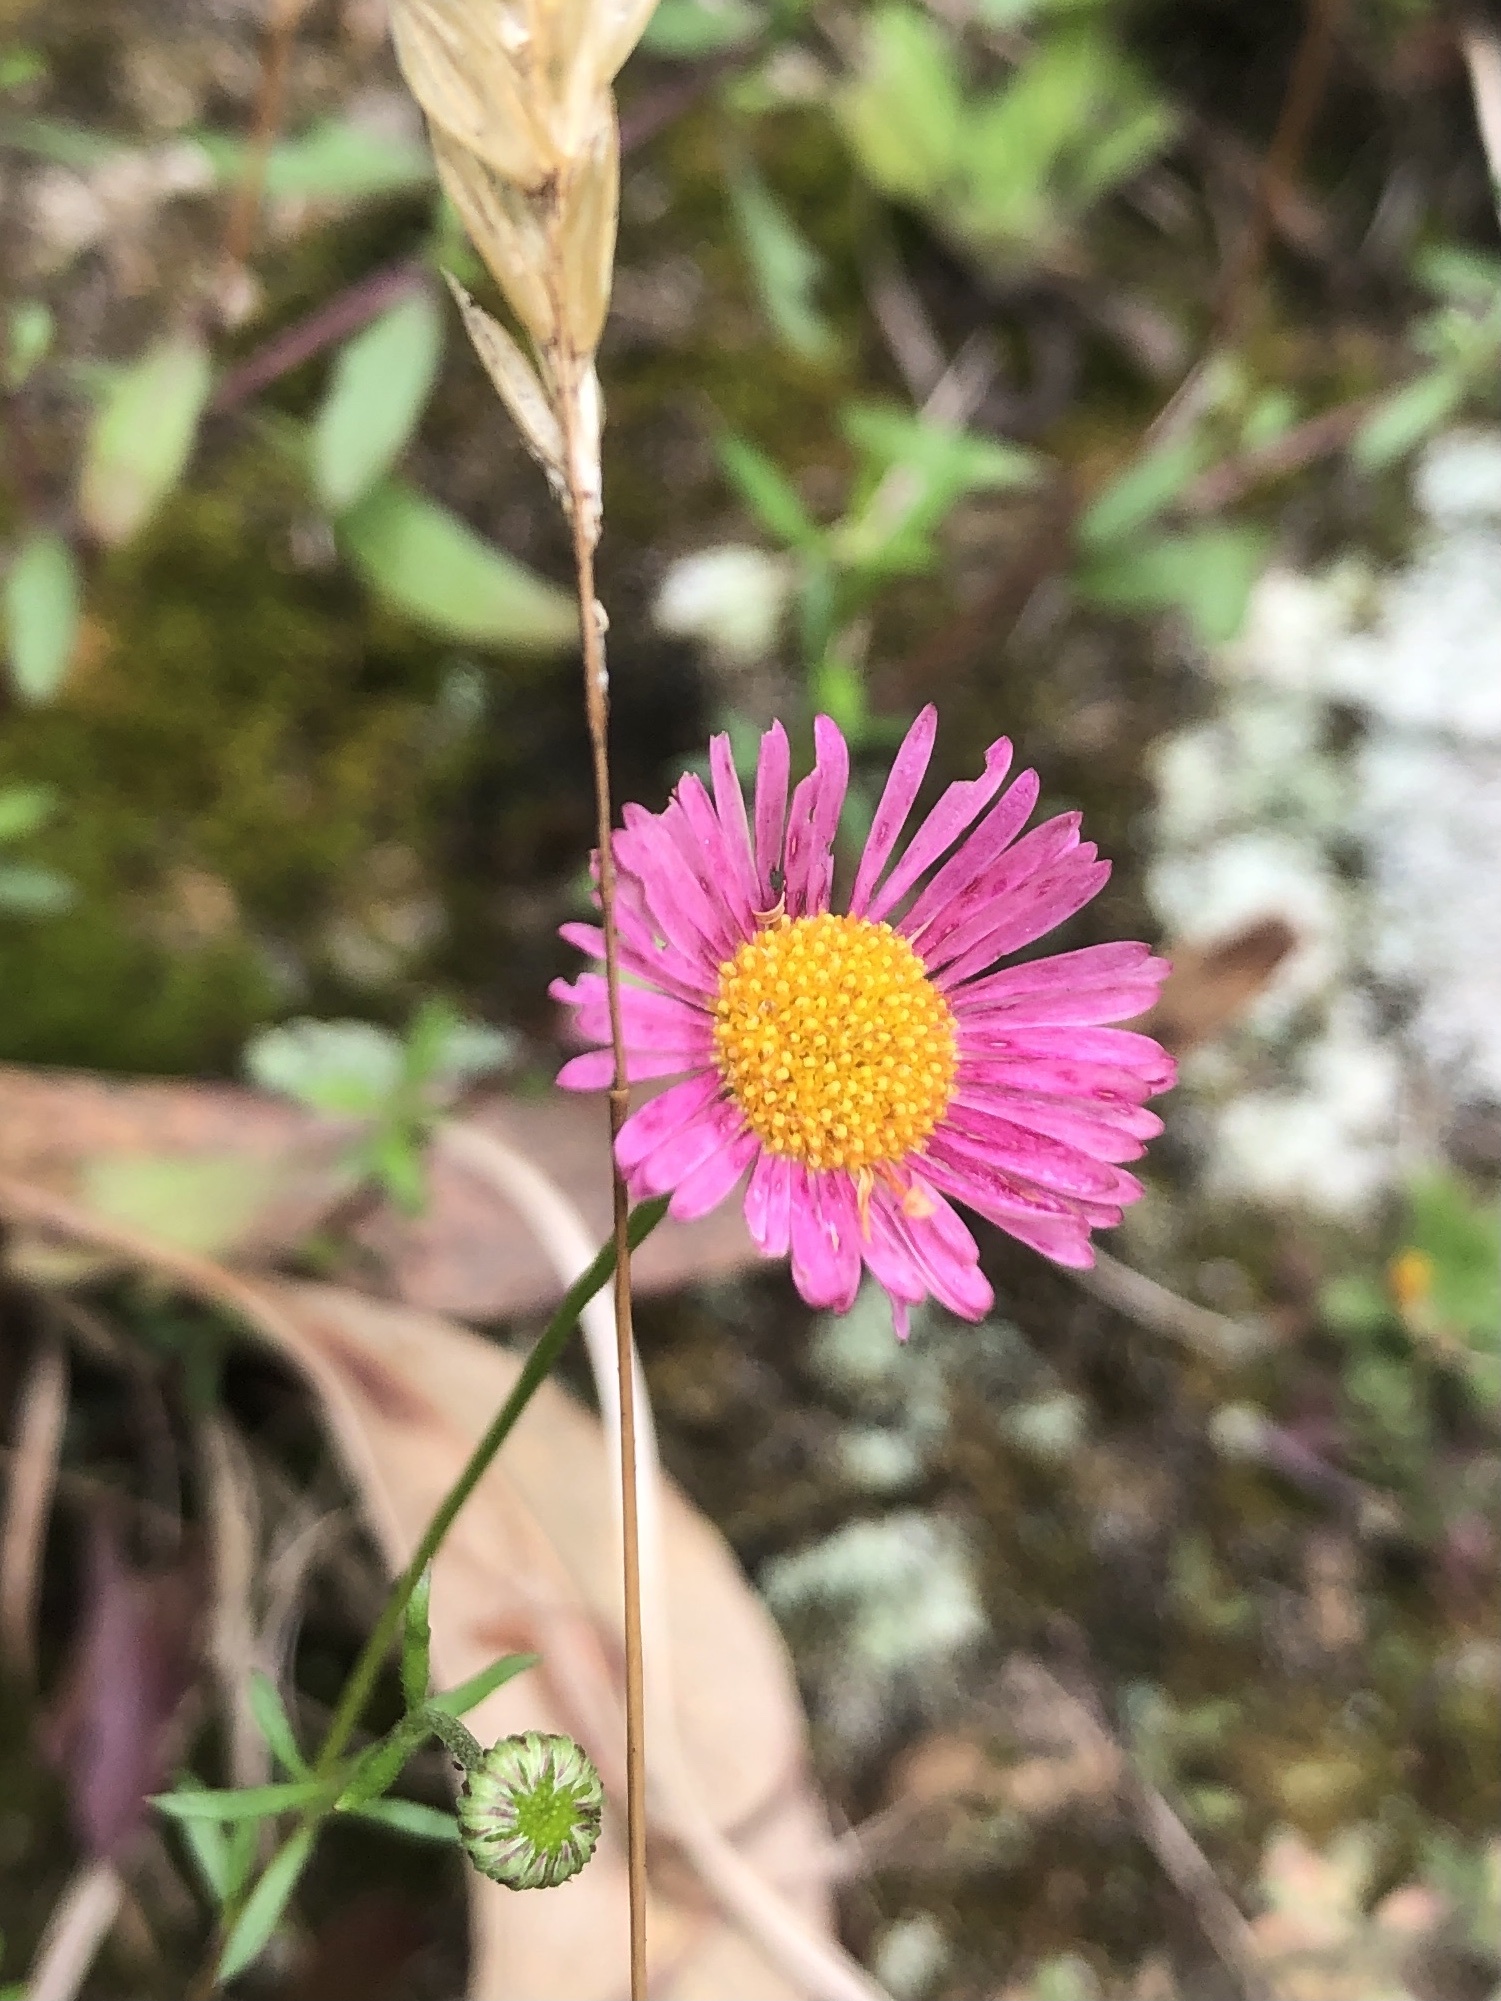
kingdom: Plantae
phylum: Tracheophyta
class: Magnoliopsida
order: Asterales
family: Asteraceae
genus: Erigeron
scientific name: Erigeron karvinskianus
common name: Mexican fleabane
